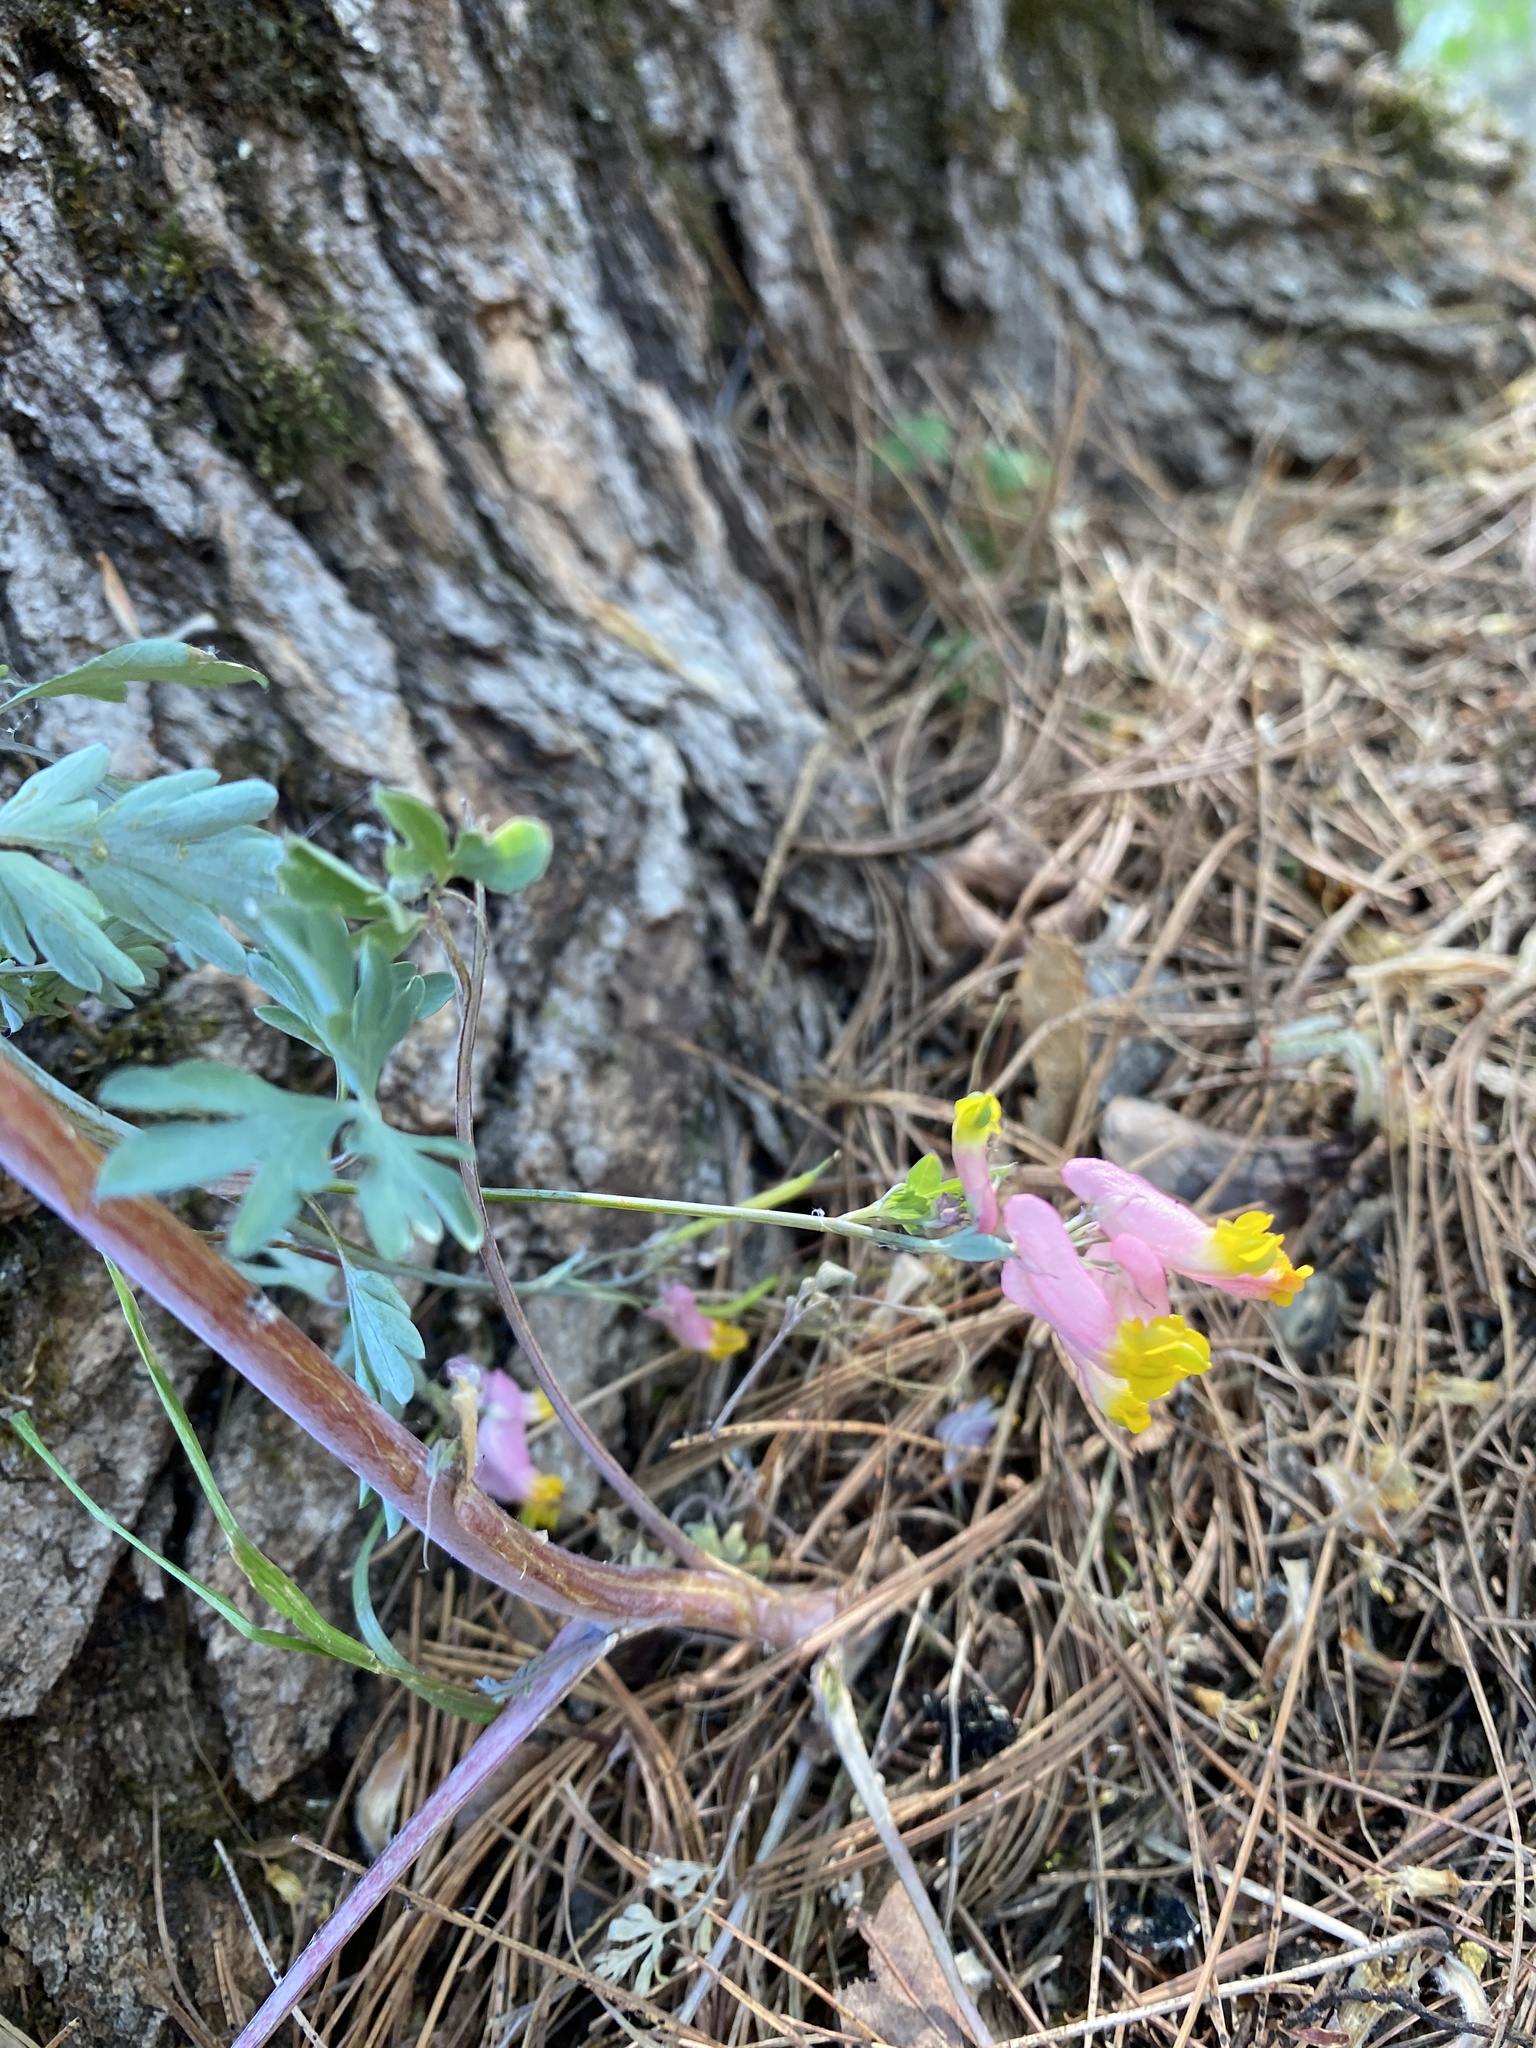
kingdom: Plantae
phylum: Tracheophyta
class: Magnoliopsida
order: Ranunculales
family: Papaveraceae
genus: Capnoides
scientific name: Capnoides sempervirens
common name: Rock harlequin
